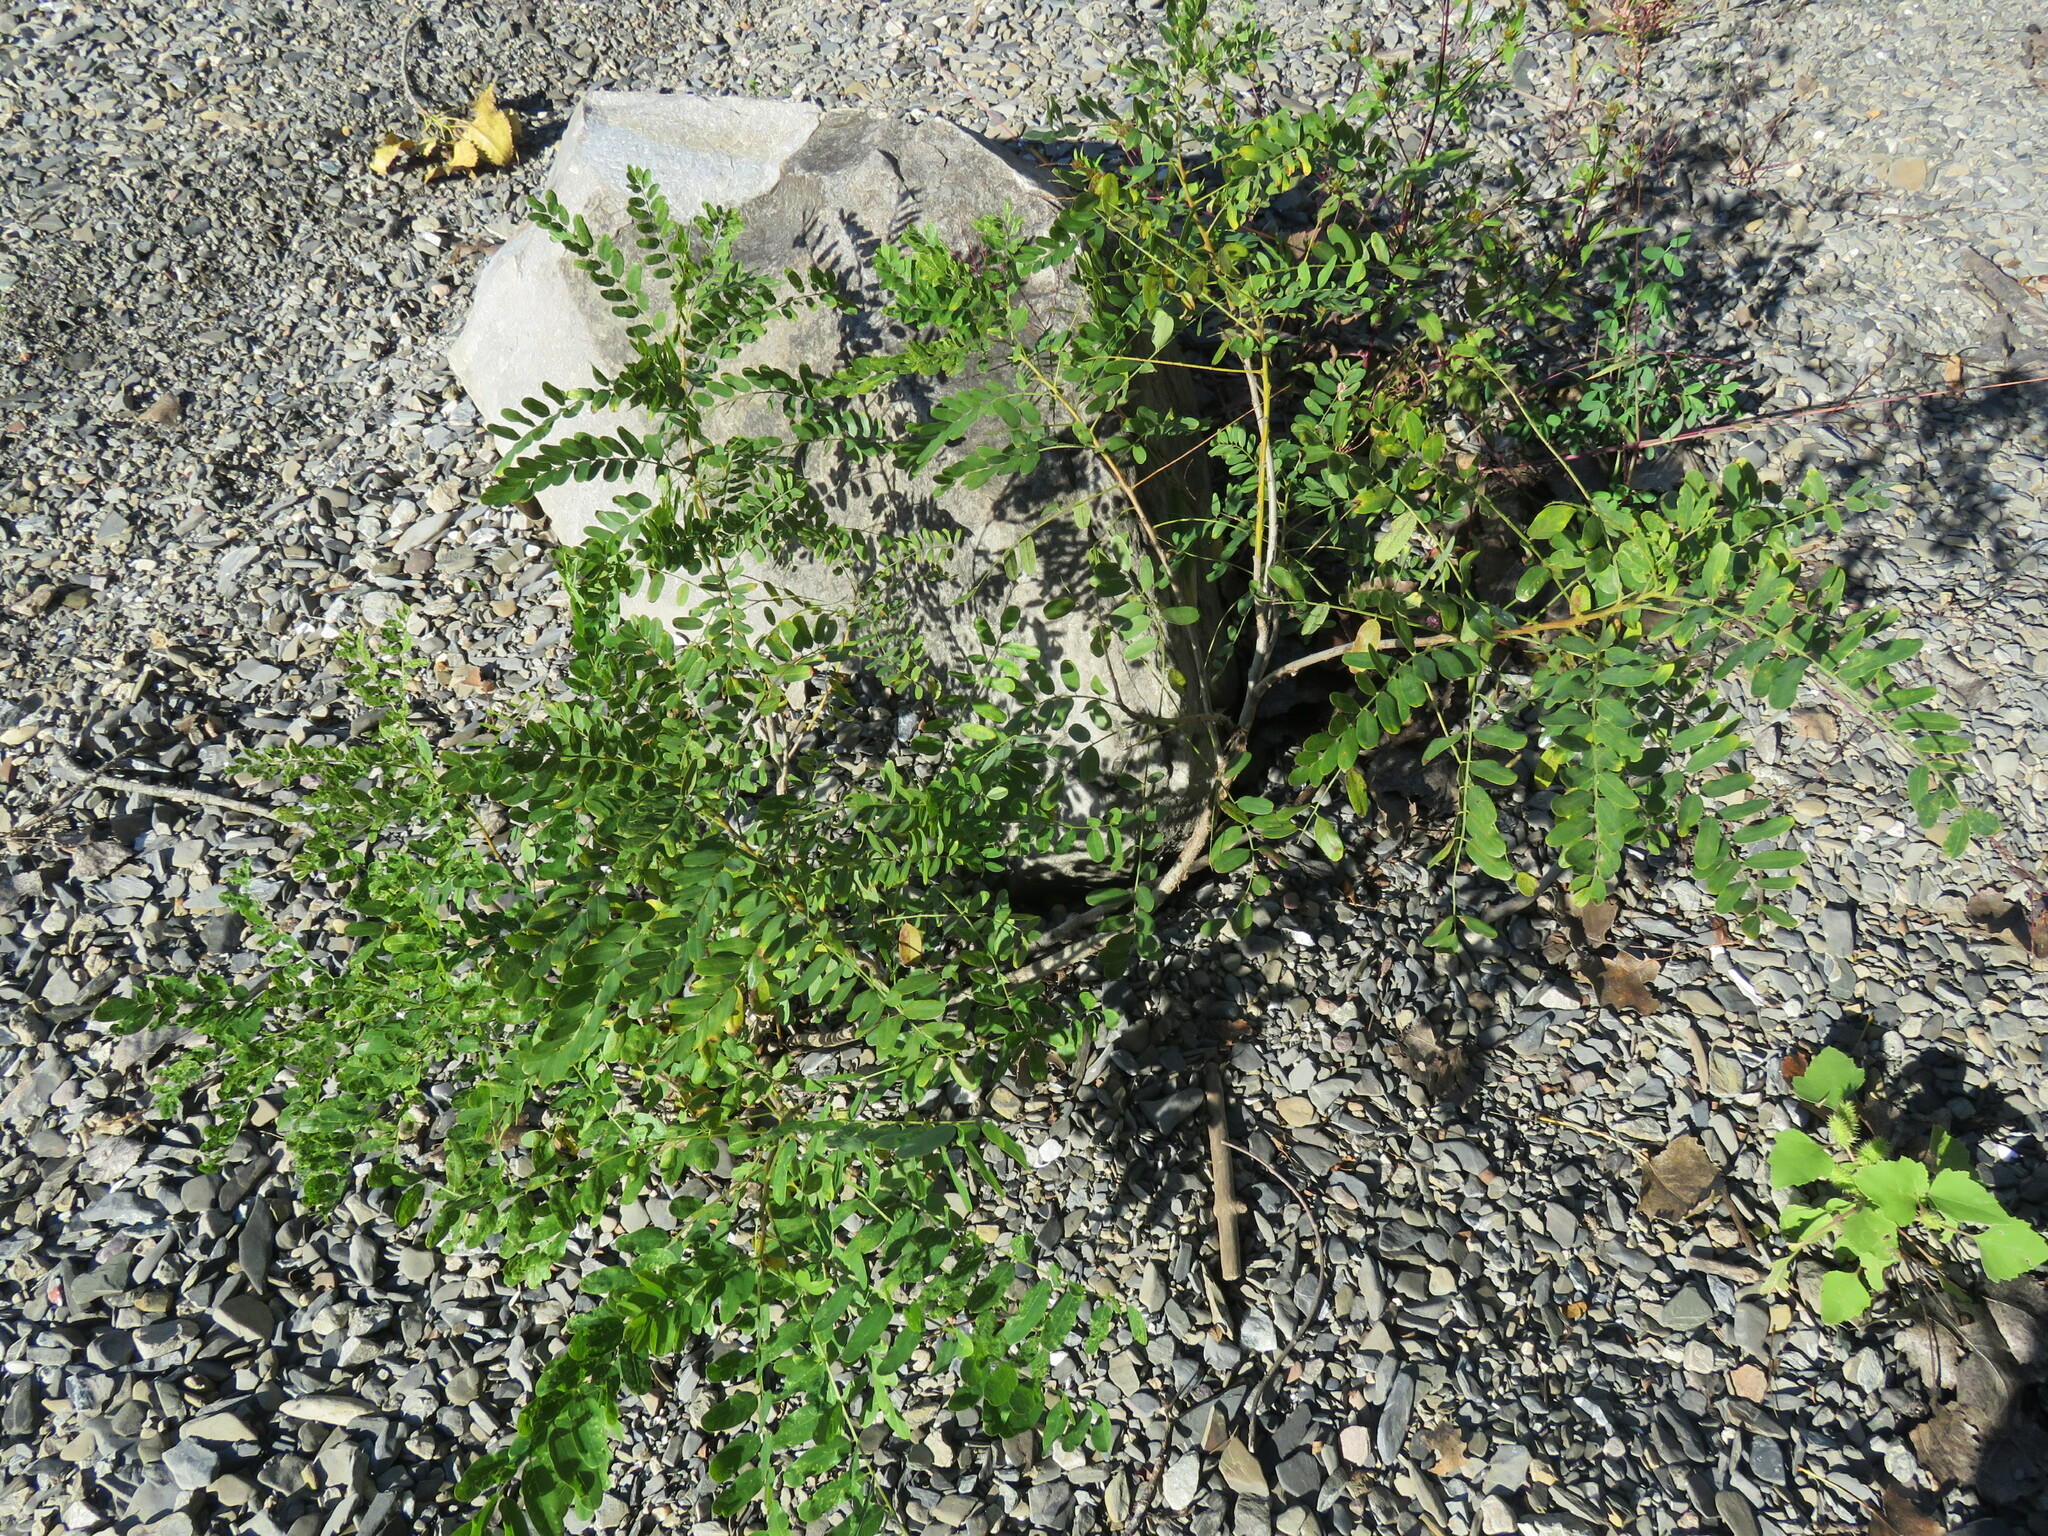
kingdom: Plantae
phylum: Tracheophyta
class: Magnoliopsida
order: Fabales
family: Fabaceae
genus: Amorpha
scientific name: Amorpha fruticosa
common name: False indigo
